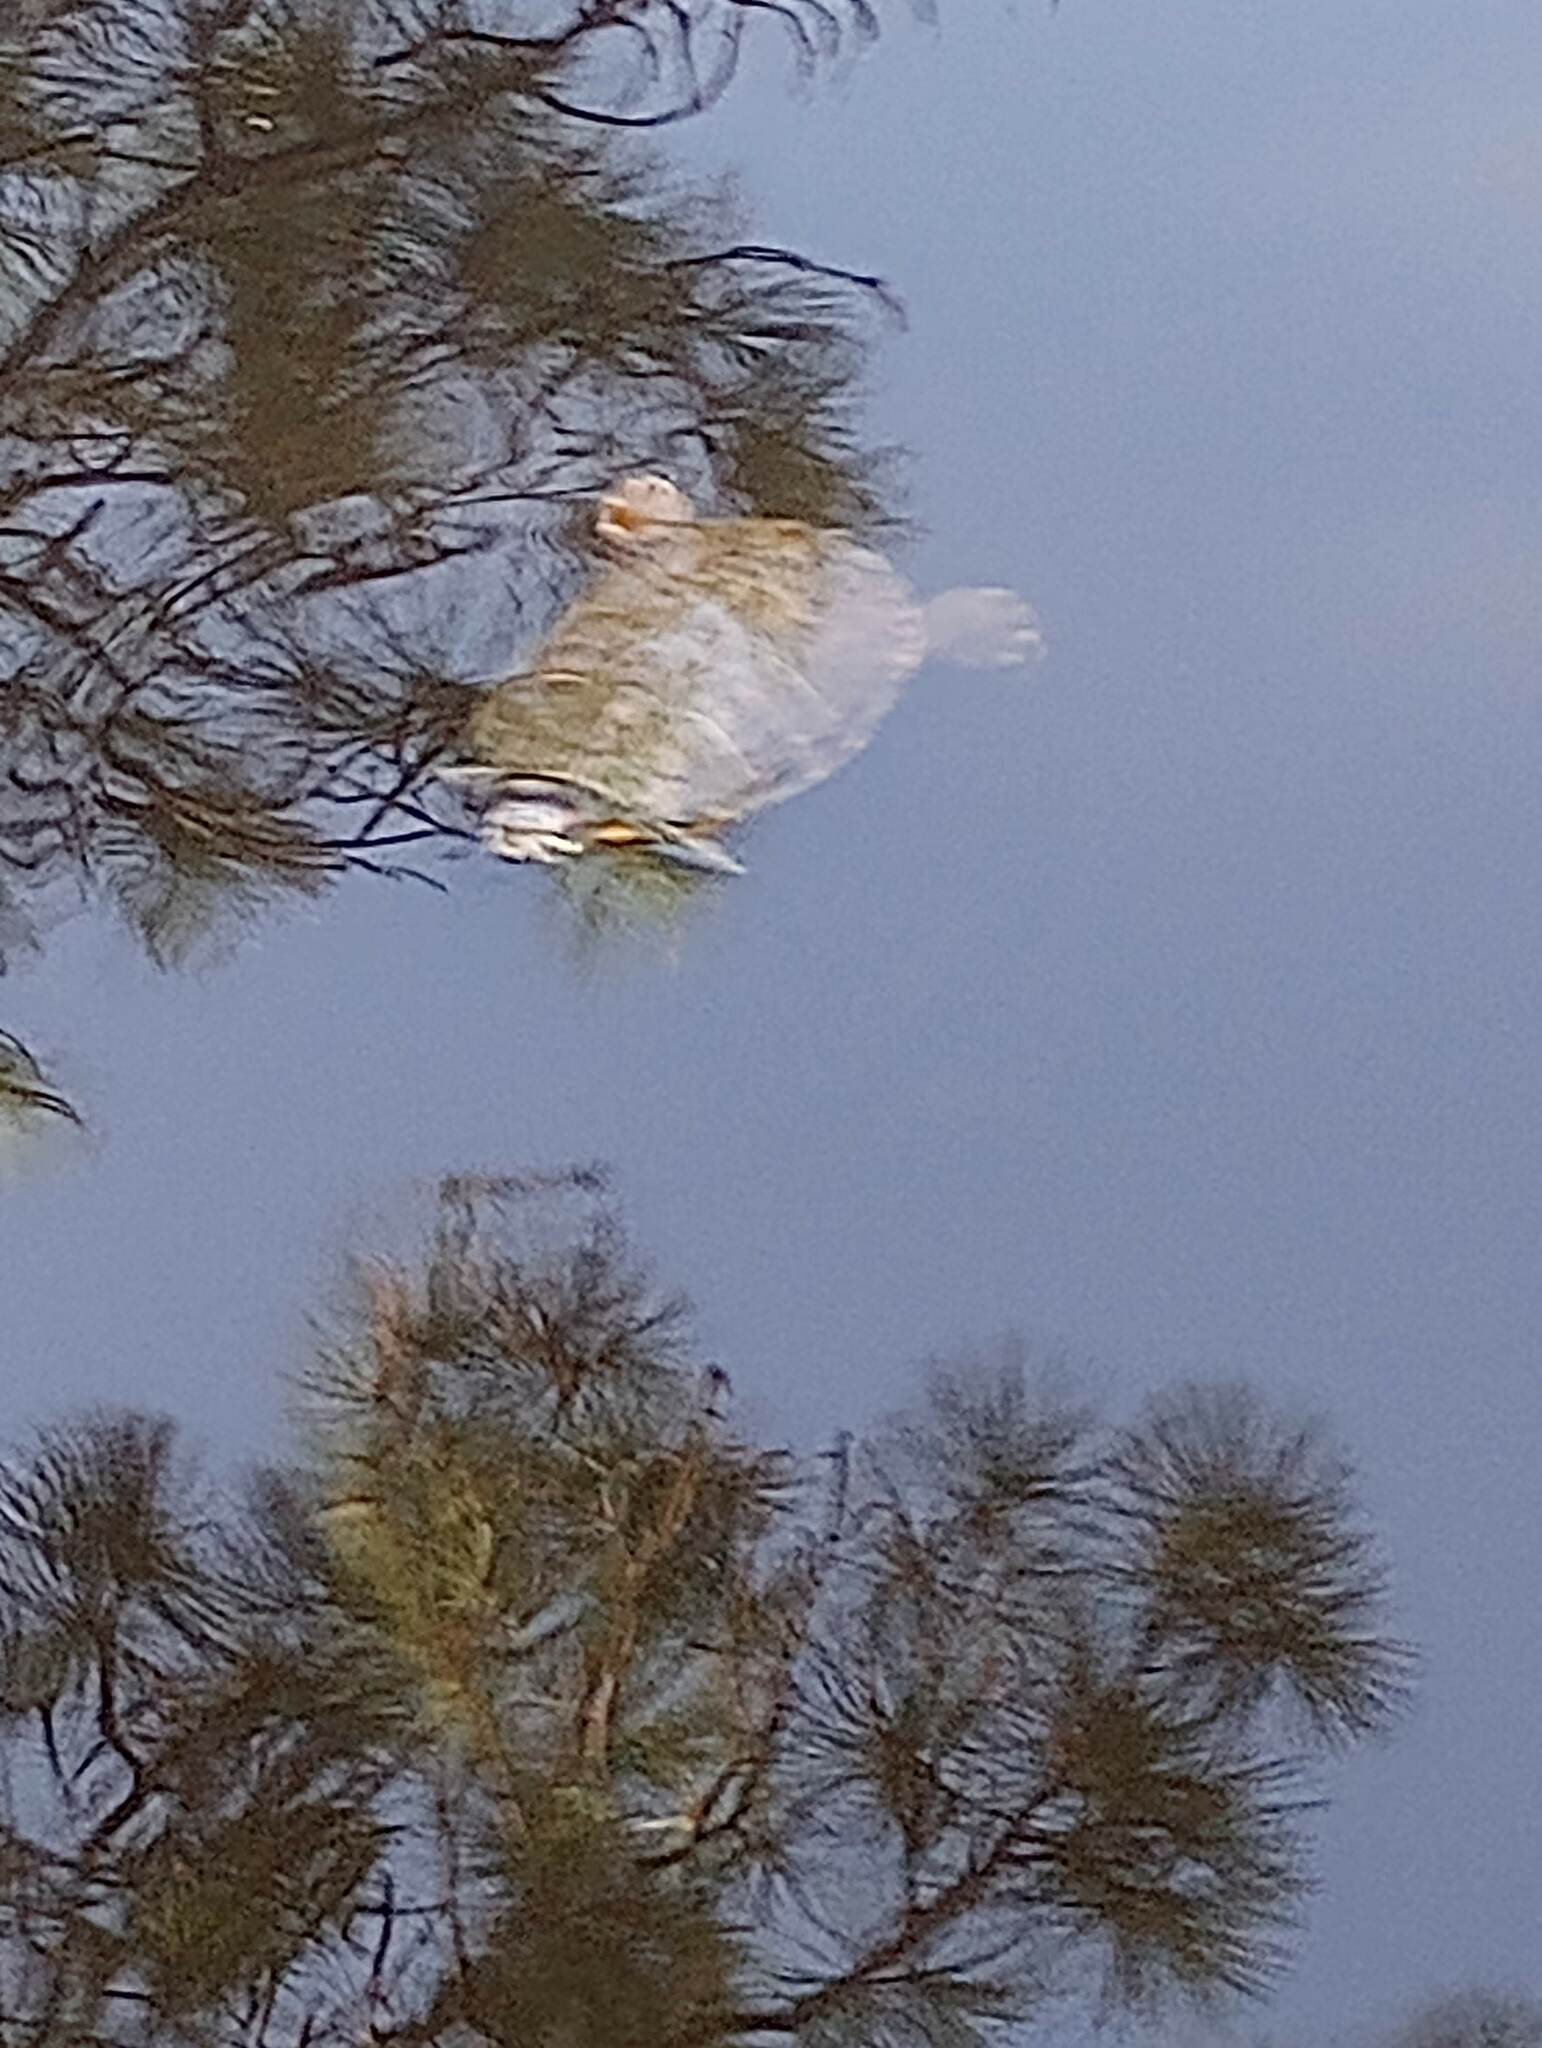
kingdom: Animalia
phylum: Chordata
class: Testudines
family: Emydidae
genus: Trachemys
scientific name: Trachemys scripta
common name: Slider
